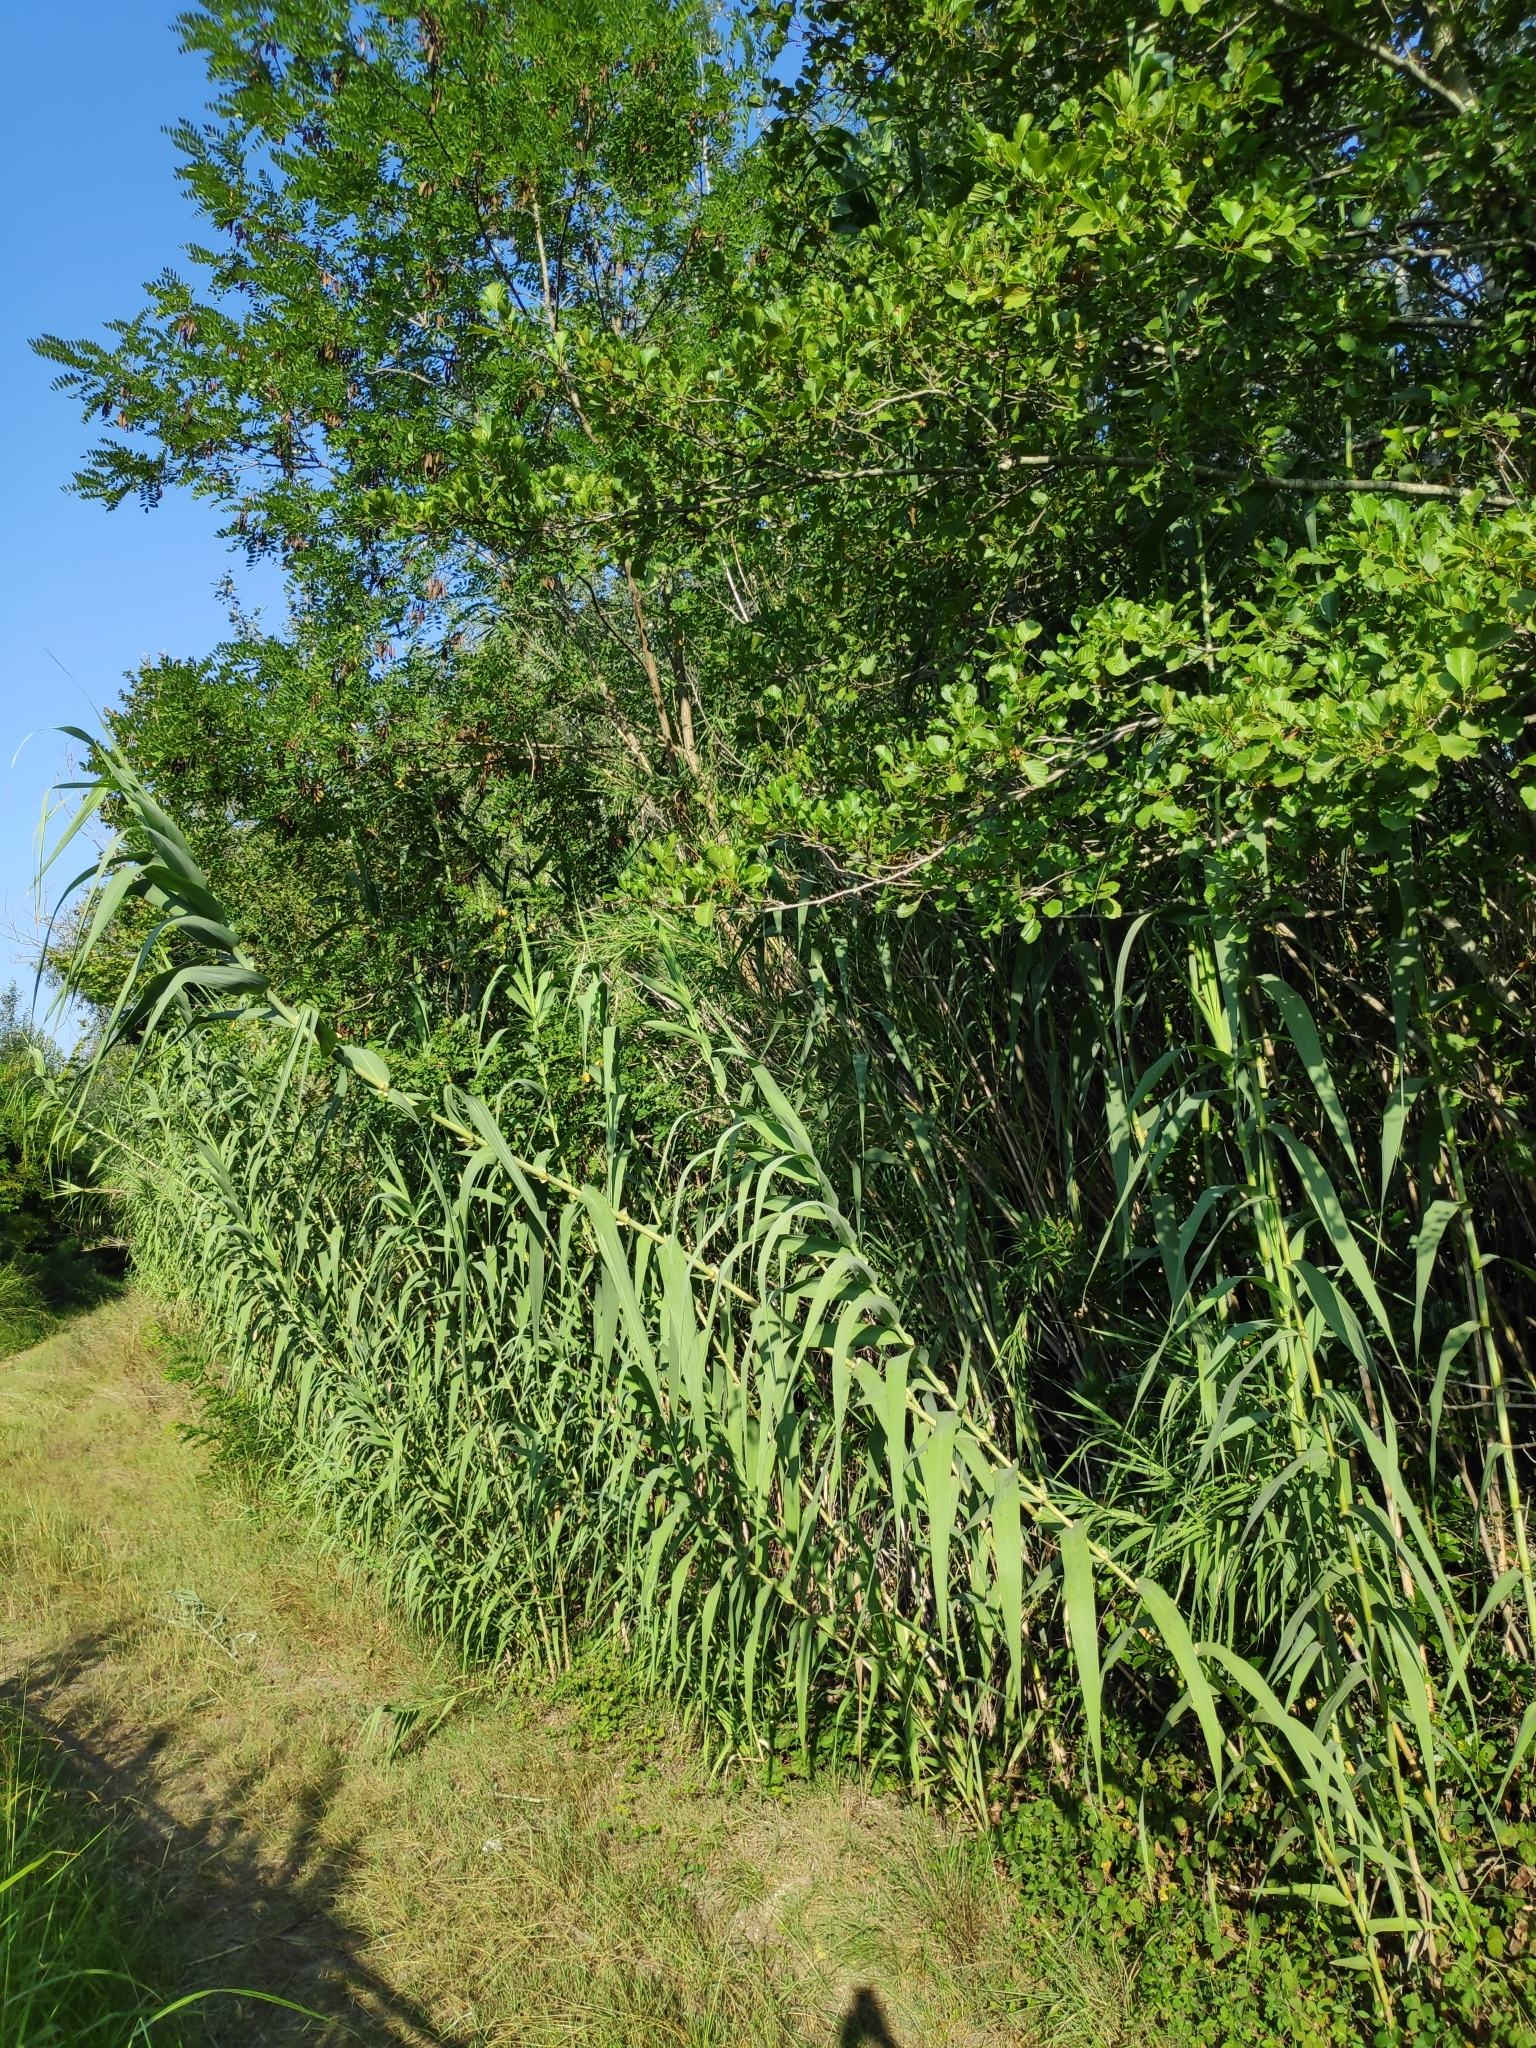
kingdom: Plantae
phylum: Tracheophyta
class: Liliopsida
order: Poales
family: Poaceae
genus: Arundo
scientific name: Arundo donax
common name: Giant reed
